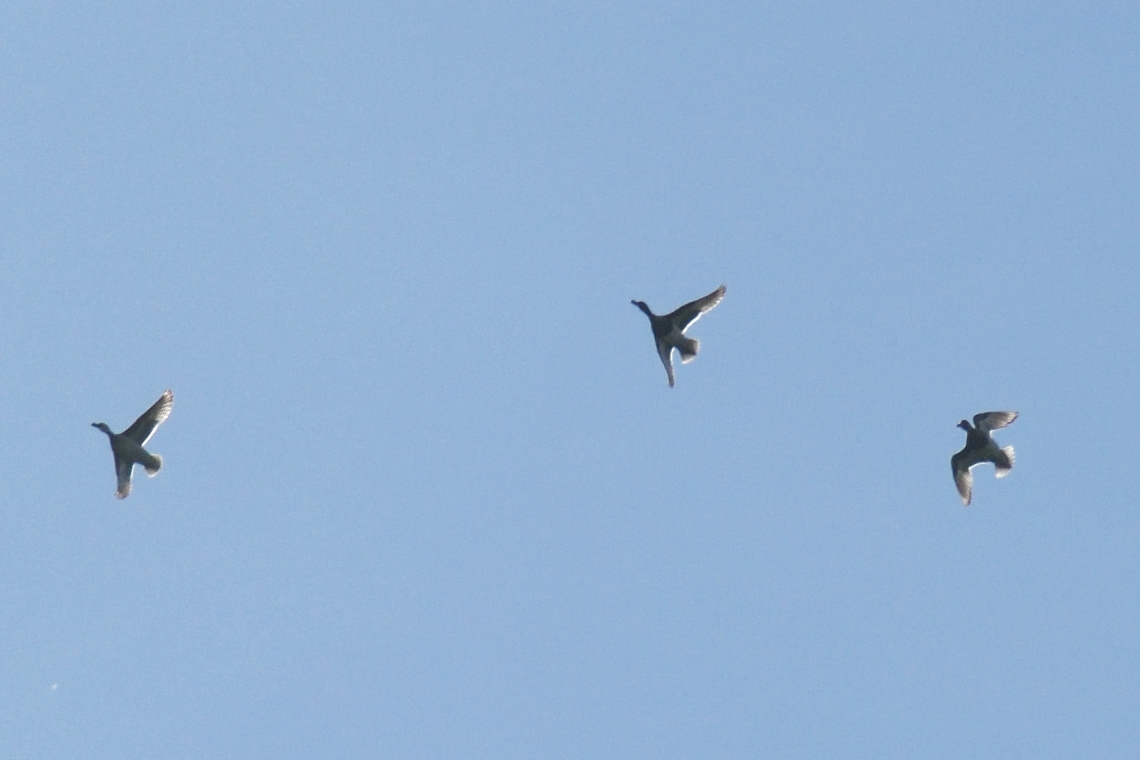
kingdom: Animalia
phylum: Chordata
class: Aves
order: Anseriformes
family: Anatidae
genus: Spatula
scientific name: Spatula querquedula
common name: Garganey
